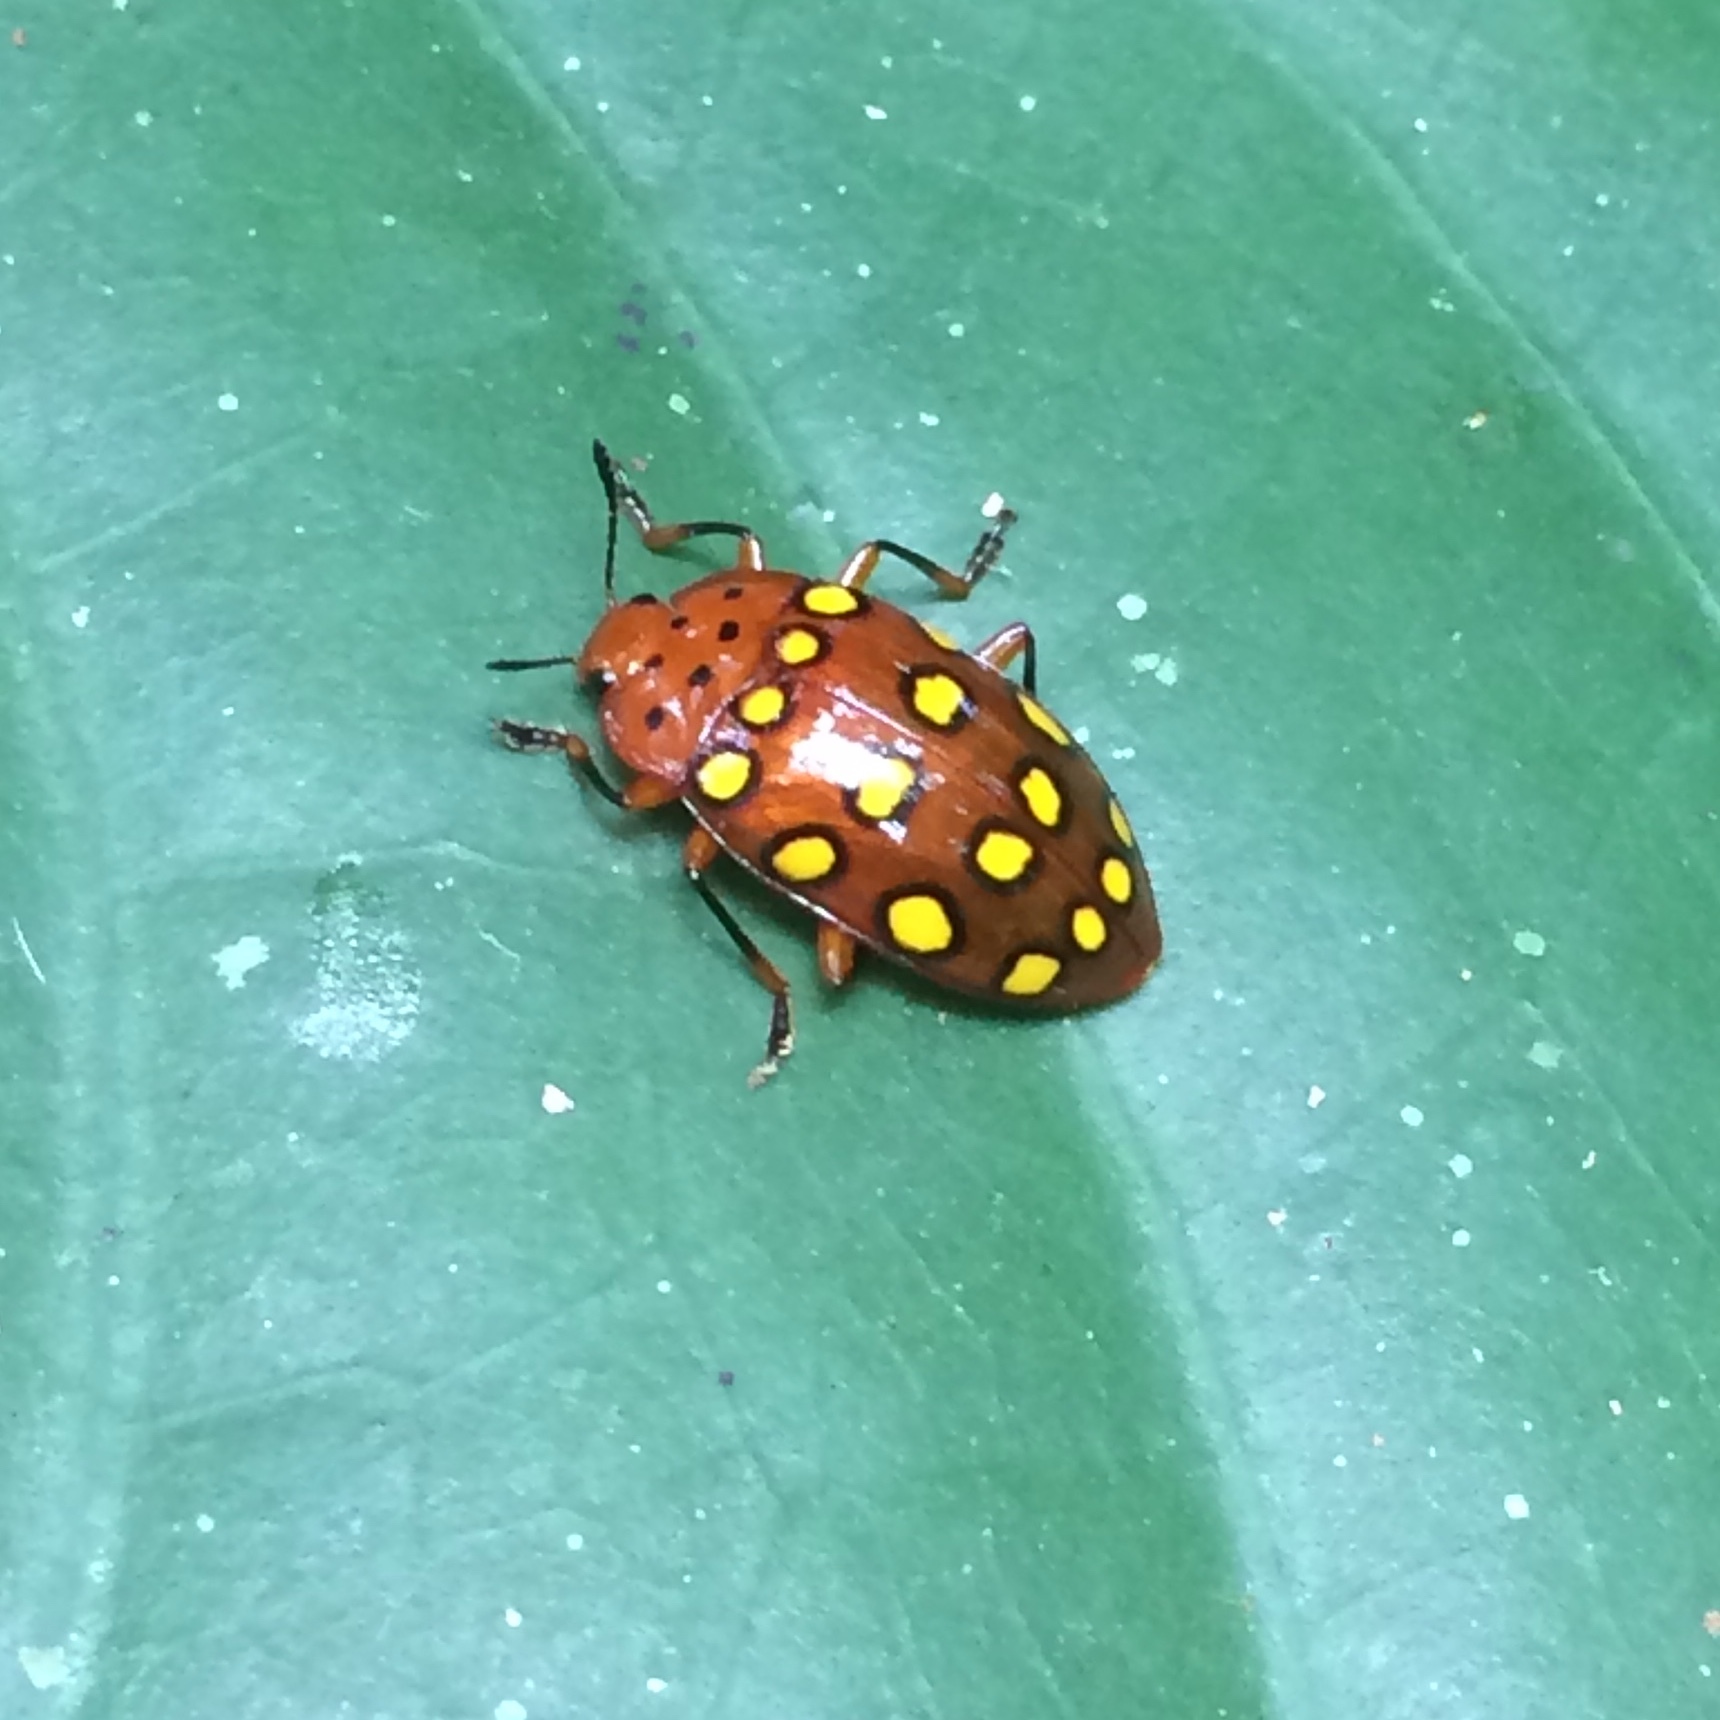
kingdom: Animalia
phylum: Arthropoda
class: Insecta
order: Coleoptera
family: Erotylidae
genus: Iphiclus
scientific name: Iphiclus
